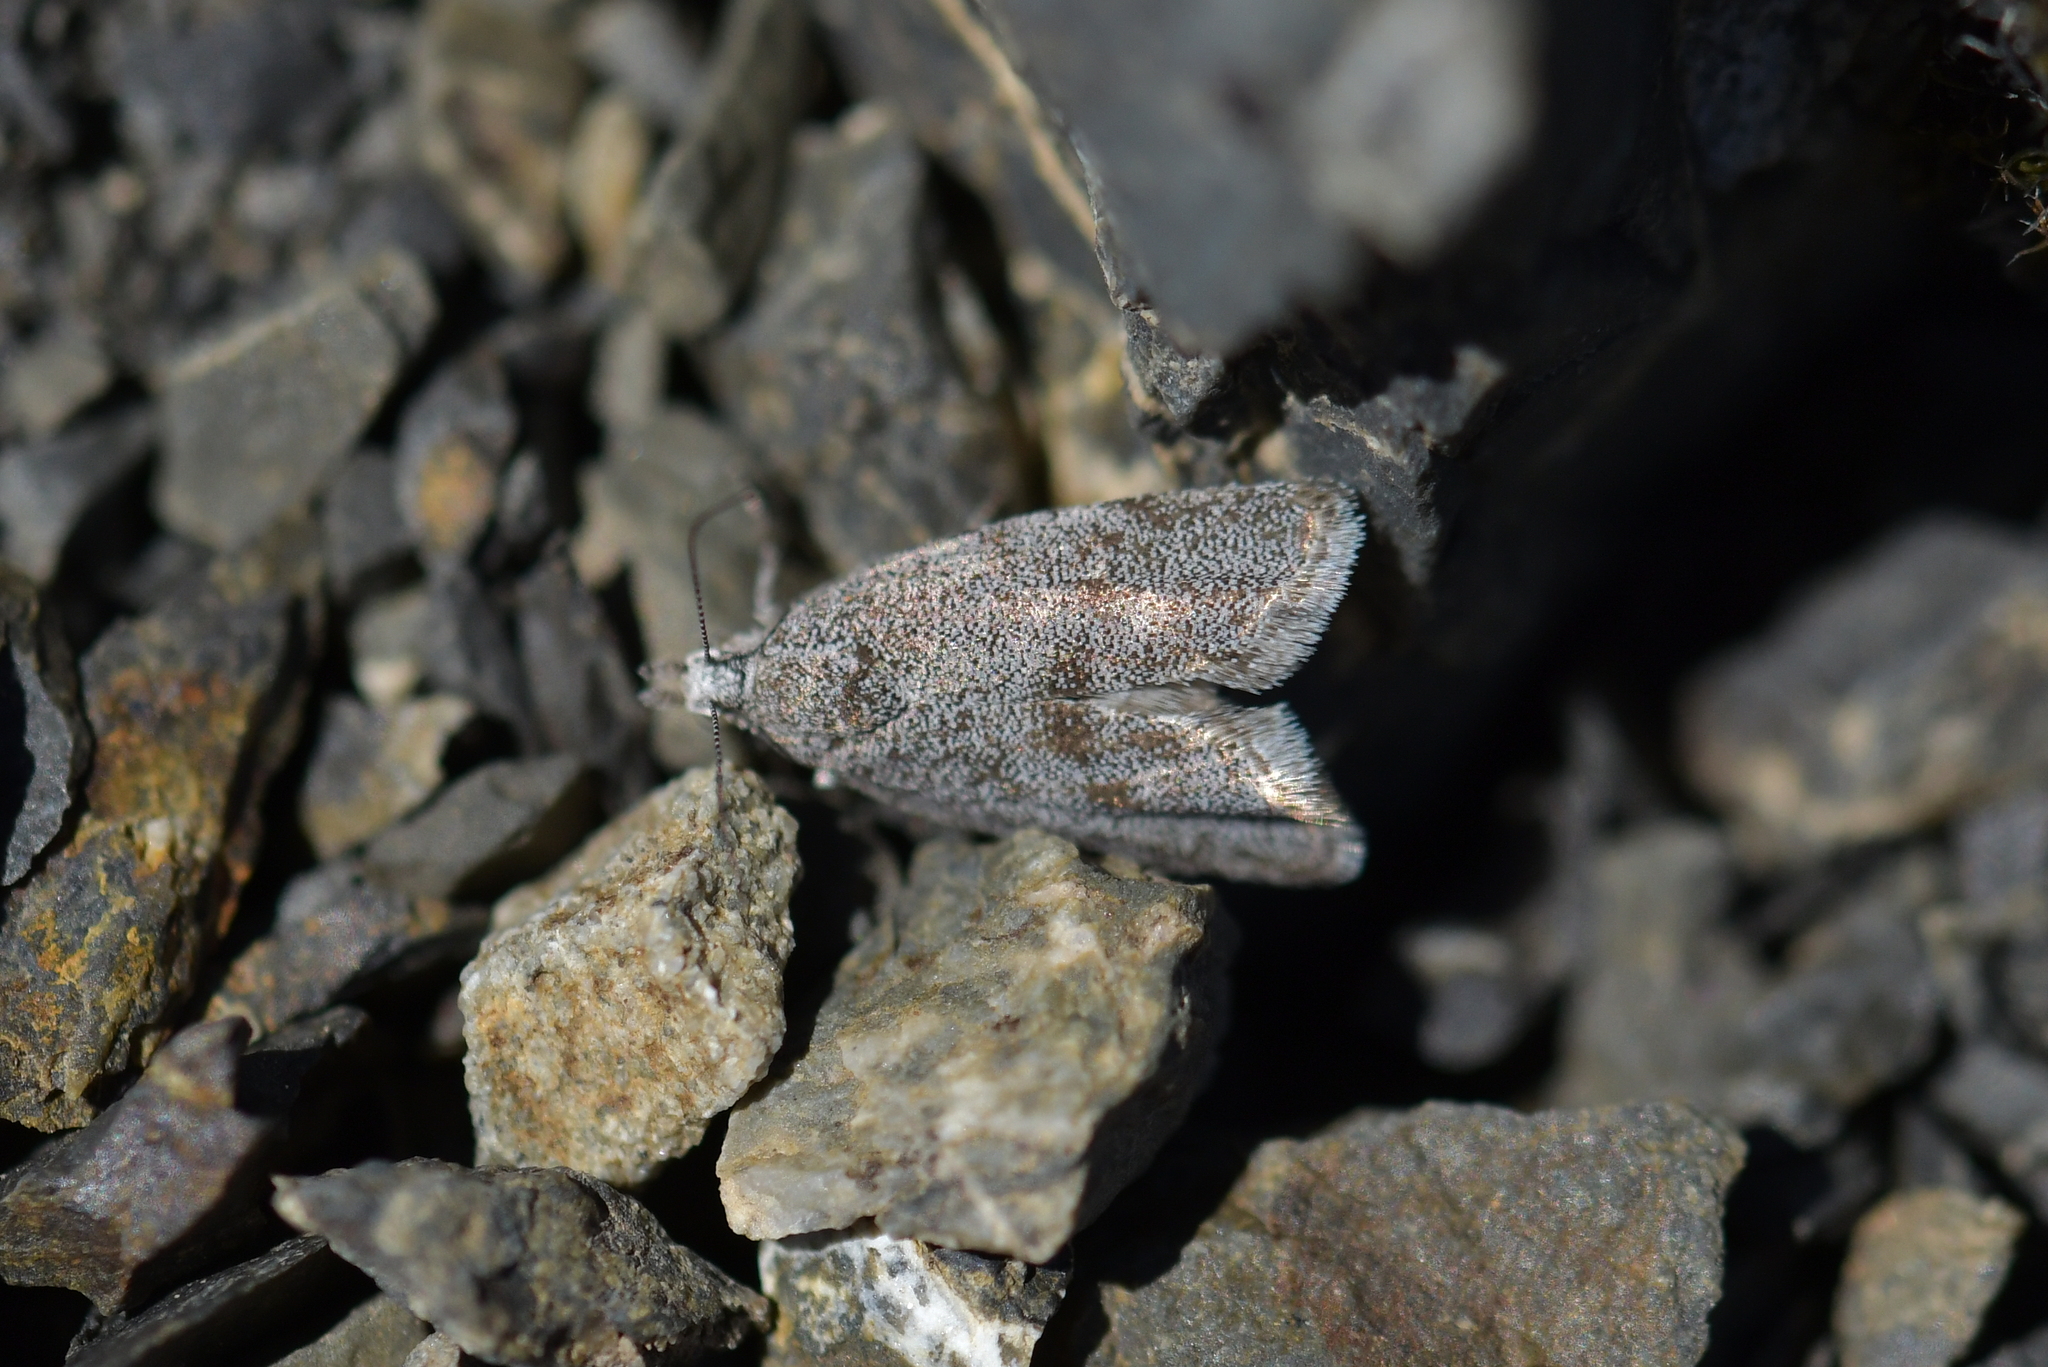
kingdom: Animalia
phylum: Arthropoda
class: Insecta
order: Lepidoptera
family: Choreutidae
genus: Asterivora
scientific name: Asterivora barbigera
